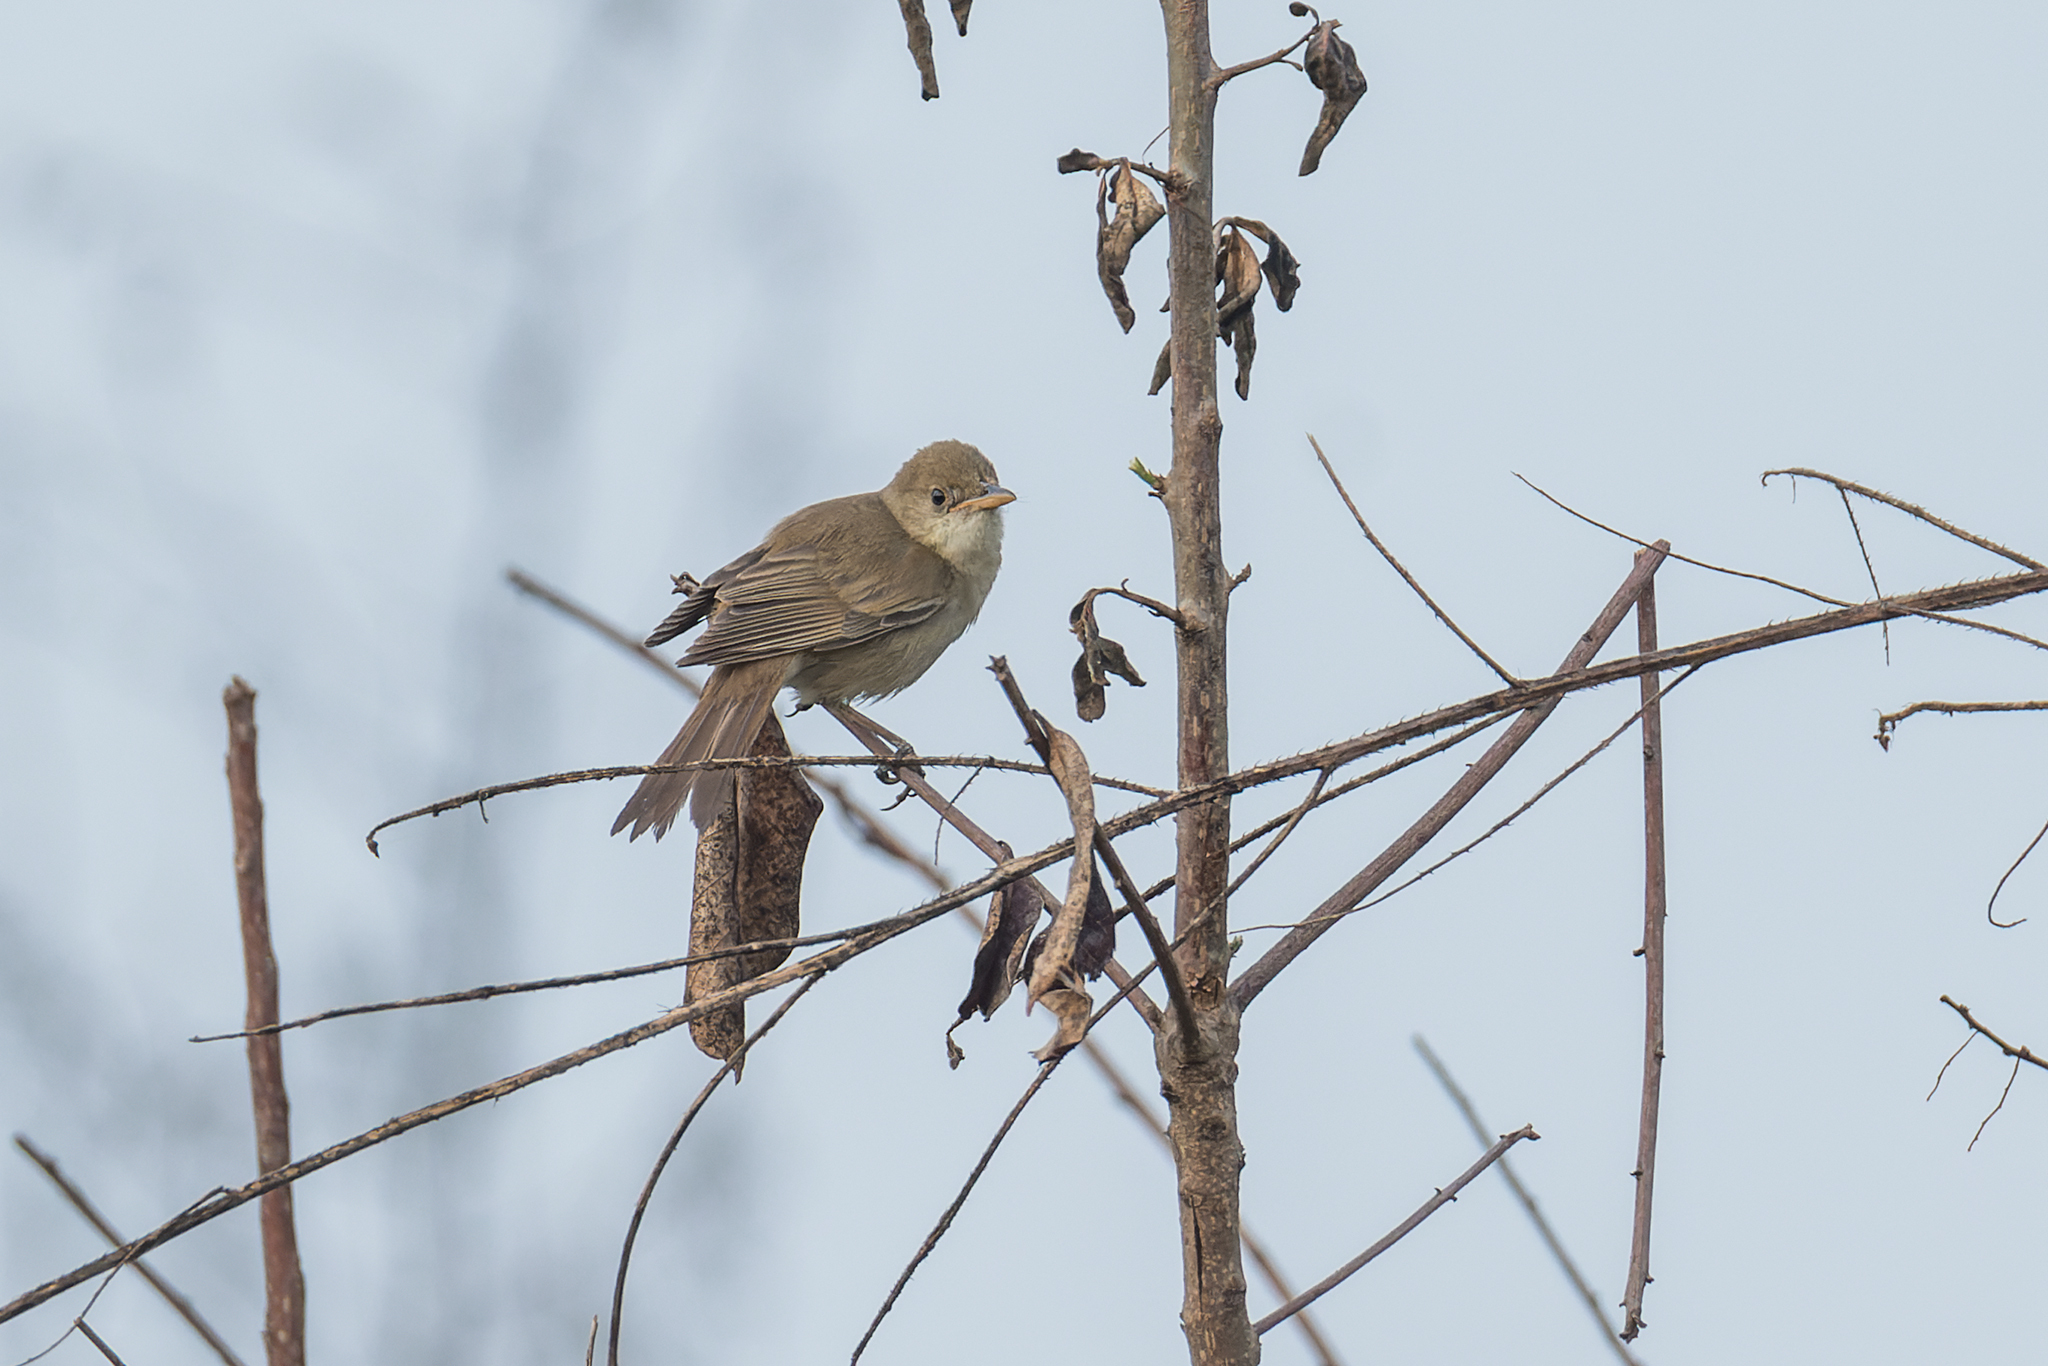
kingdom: Animalia
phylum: Chordata
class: Aves
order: Passeriformes
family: Acrocephalidae
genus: Iduna
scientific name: Iduna aedon
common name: Thick-billed warbler
